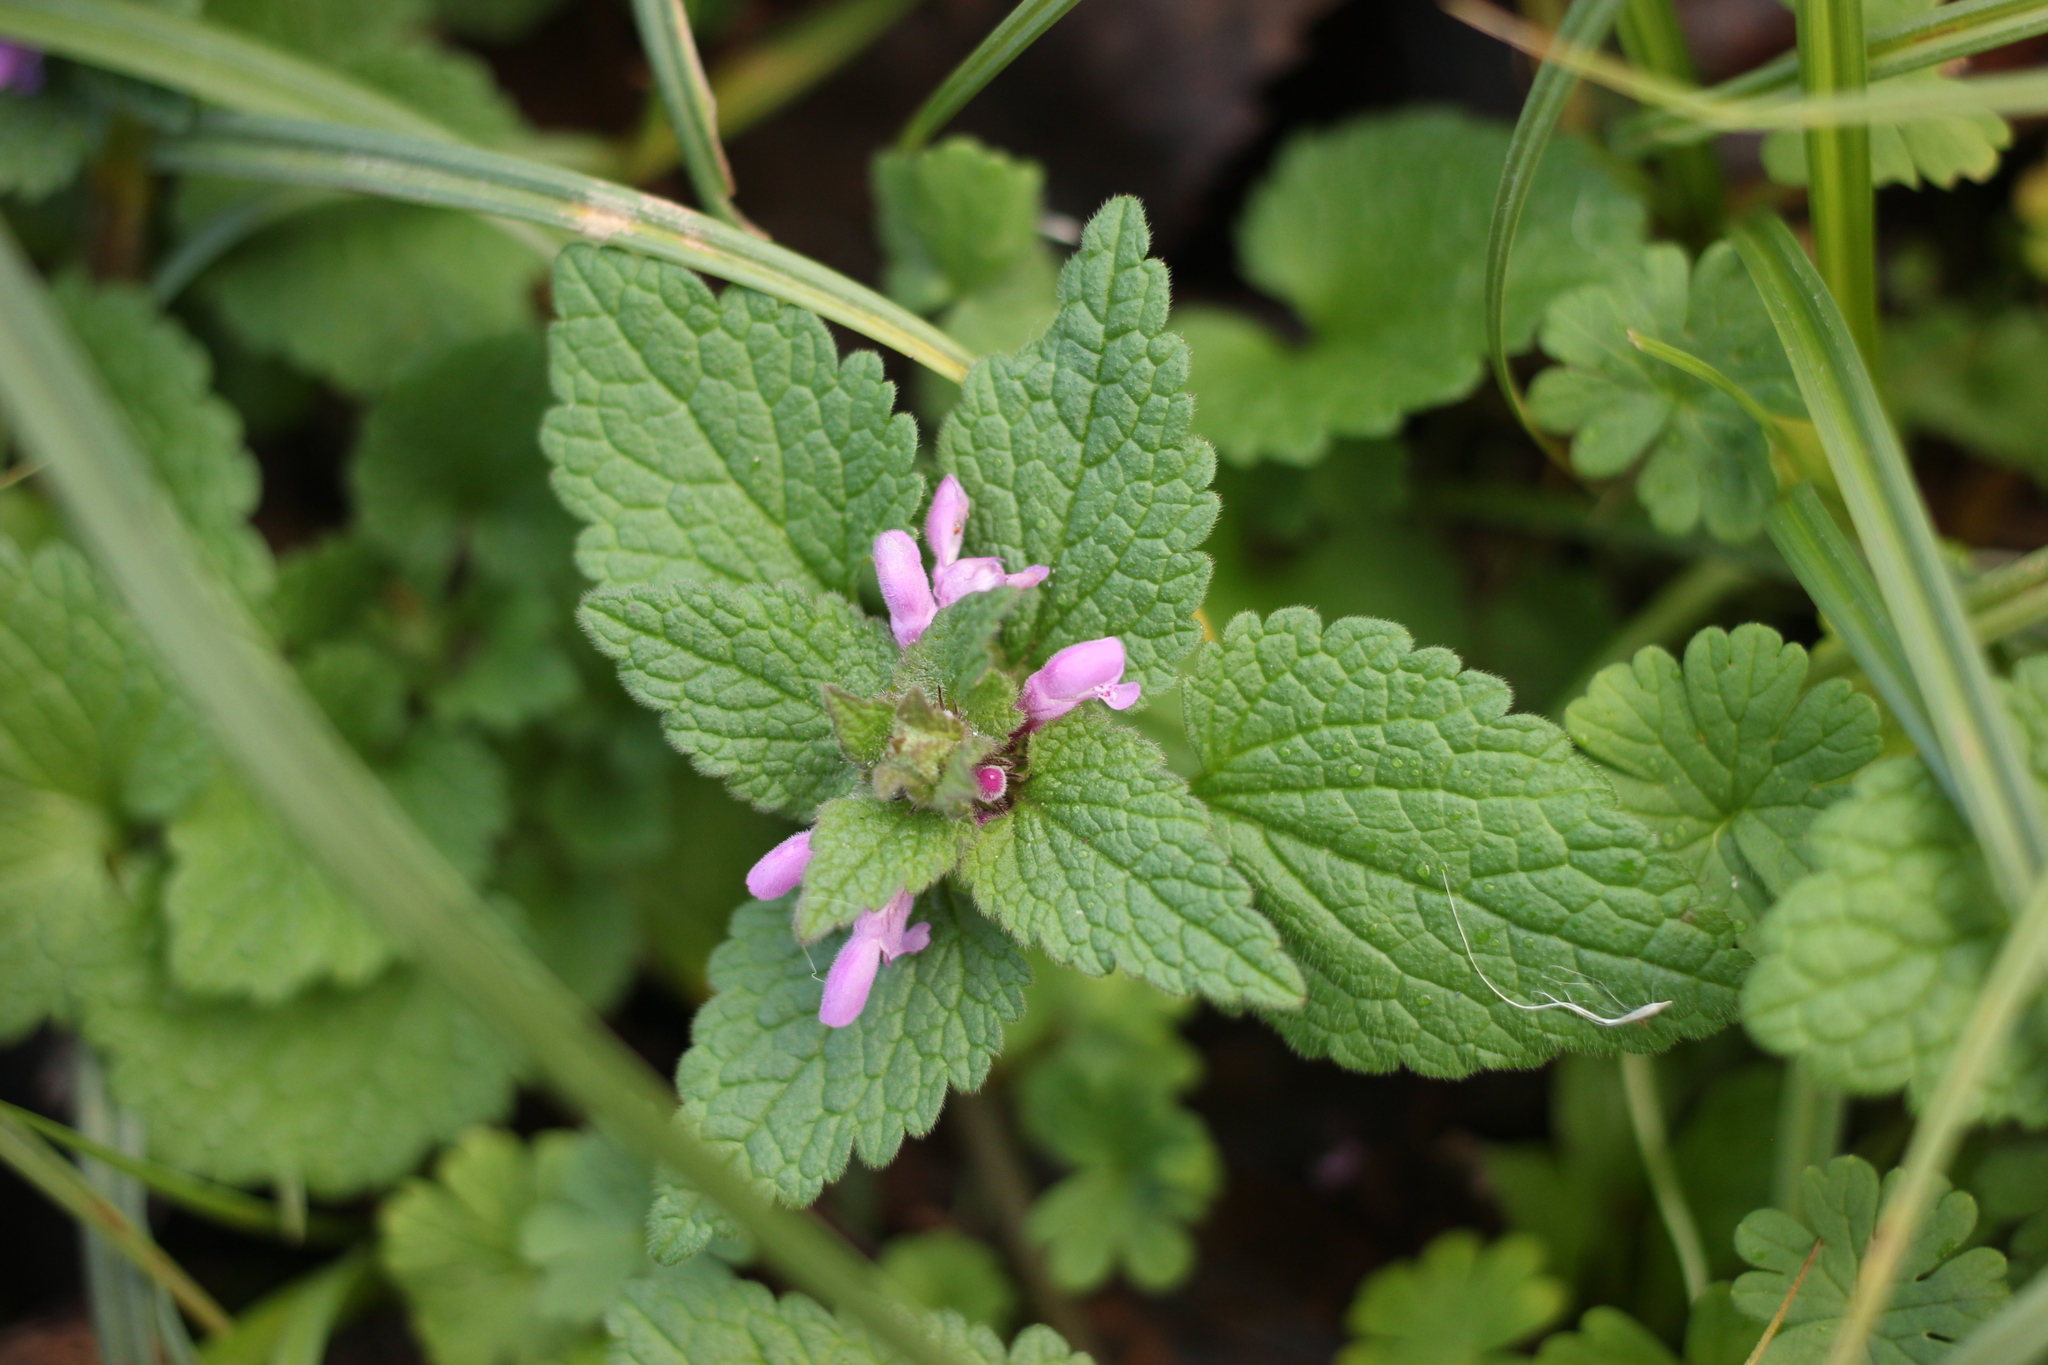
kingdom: Plantae
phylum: Tracheophyta
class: Magnoliopsida
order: Lamiales
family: Lamiaceae
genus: Lamium
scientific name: Lamium purpureum
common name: Red dead-nettle
